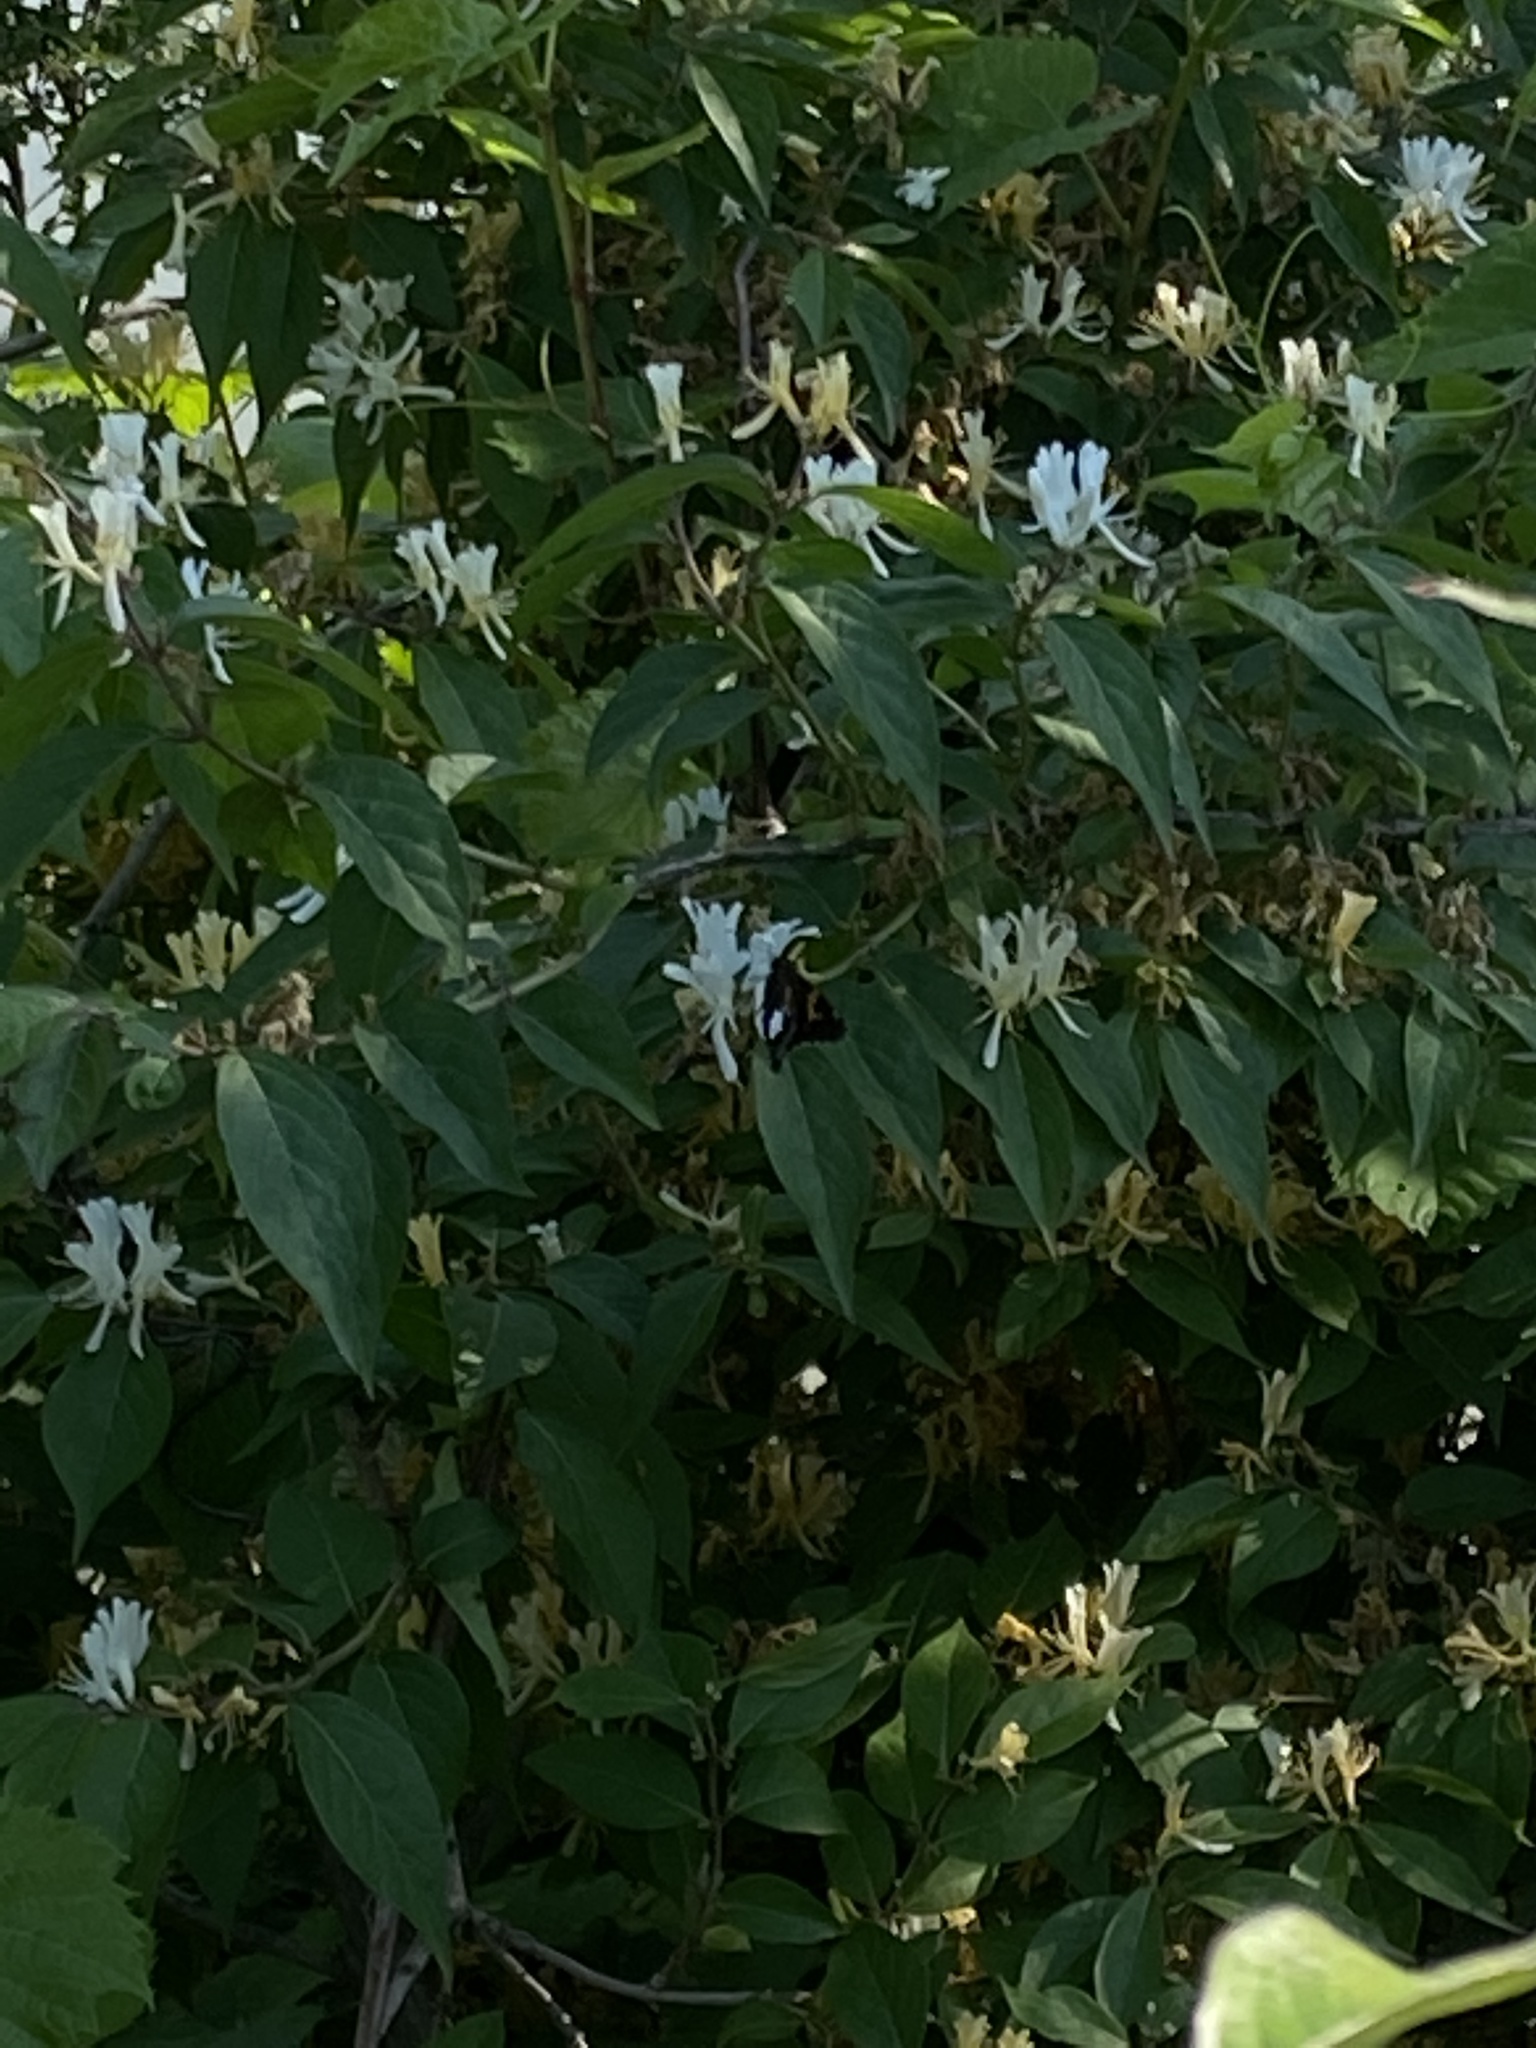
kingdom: Plantae
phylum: Tracheophyta
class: Magnoliopsida
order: Dipsacales
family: Caprifoliaceae
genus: Lonicera
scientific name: Lonicera maackii
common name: Amur honeysuckle
